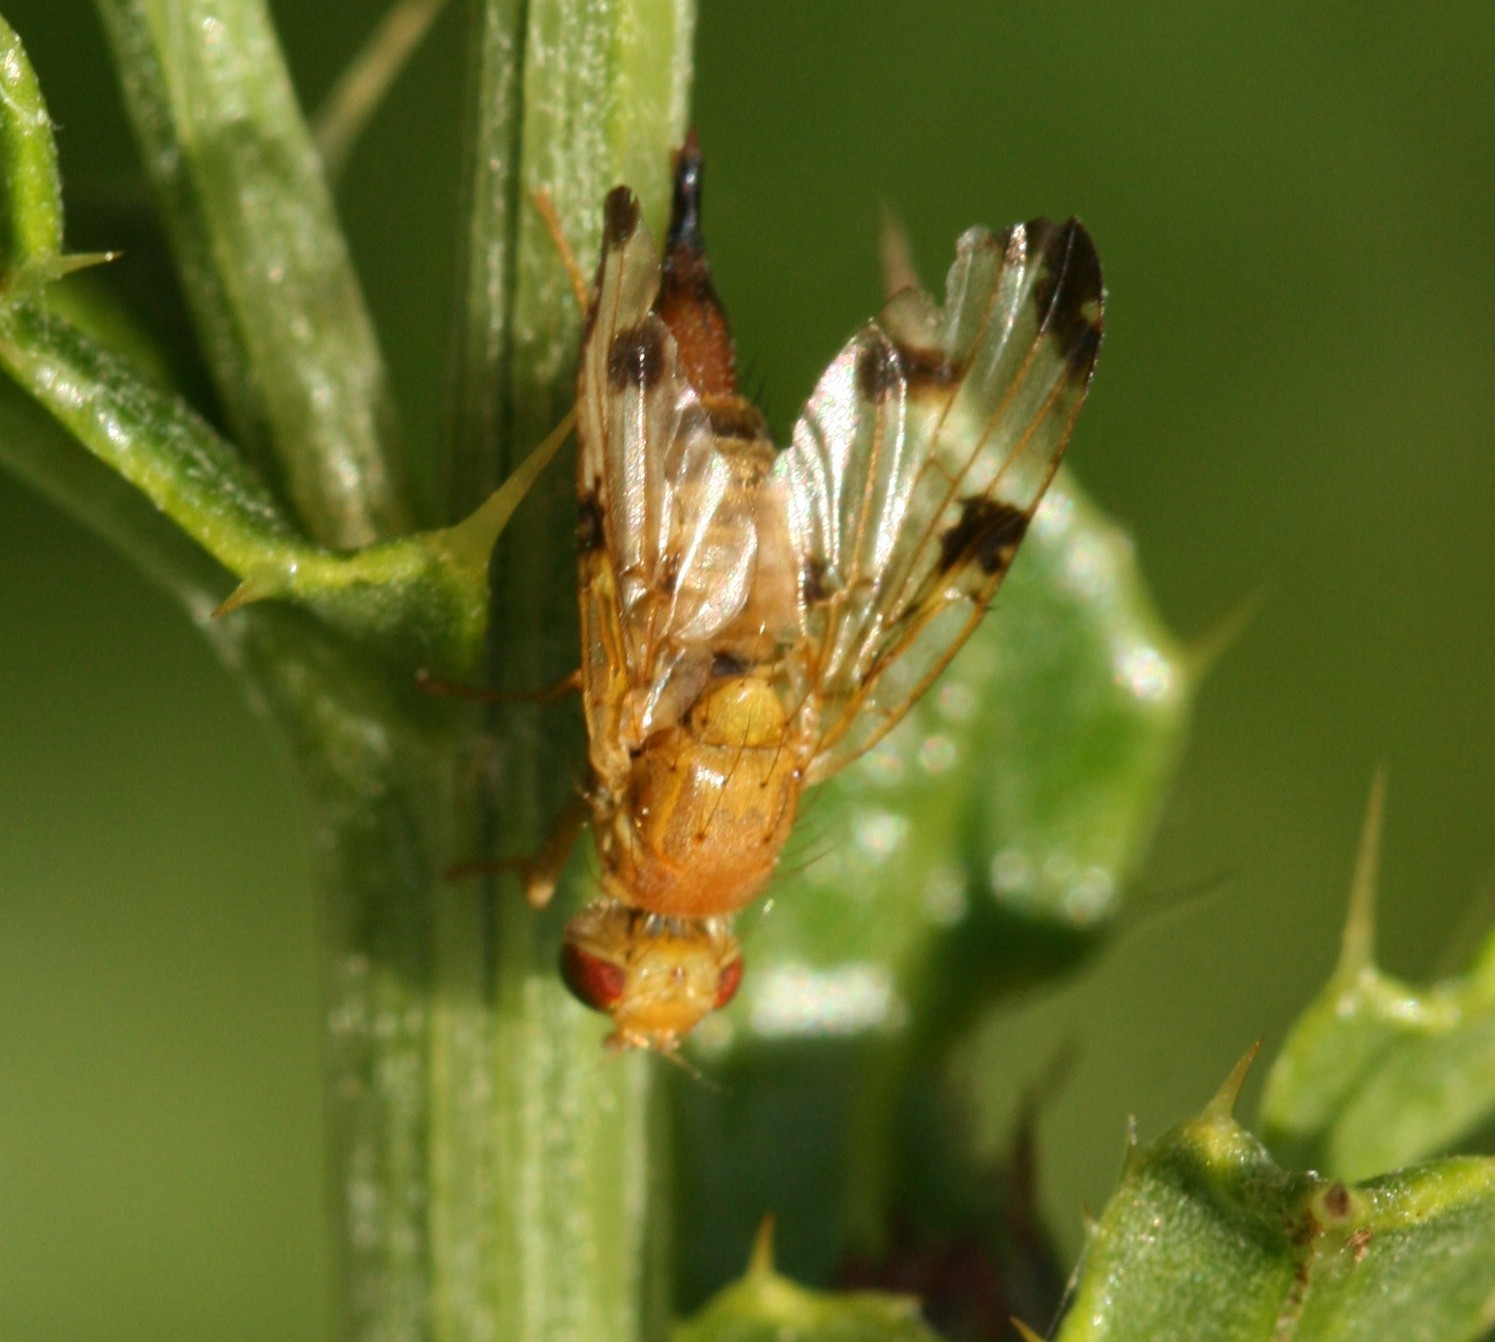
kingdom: Animalia
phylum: Arthropoda
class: Insecta
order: Diptera
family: Tephritidae
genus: Xyphosia
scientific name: Xyphosia miliaria
